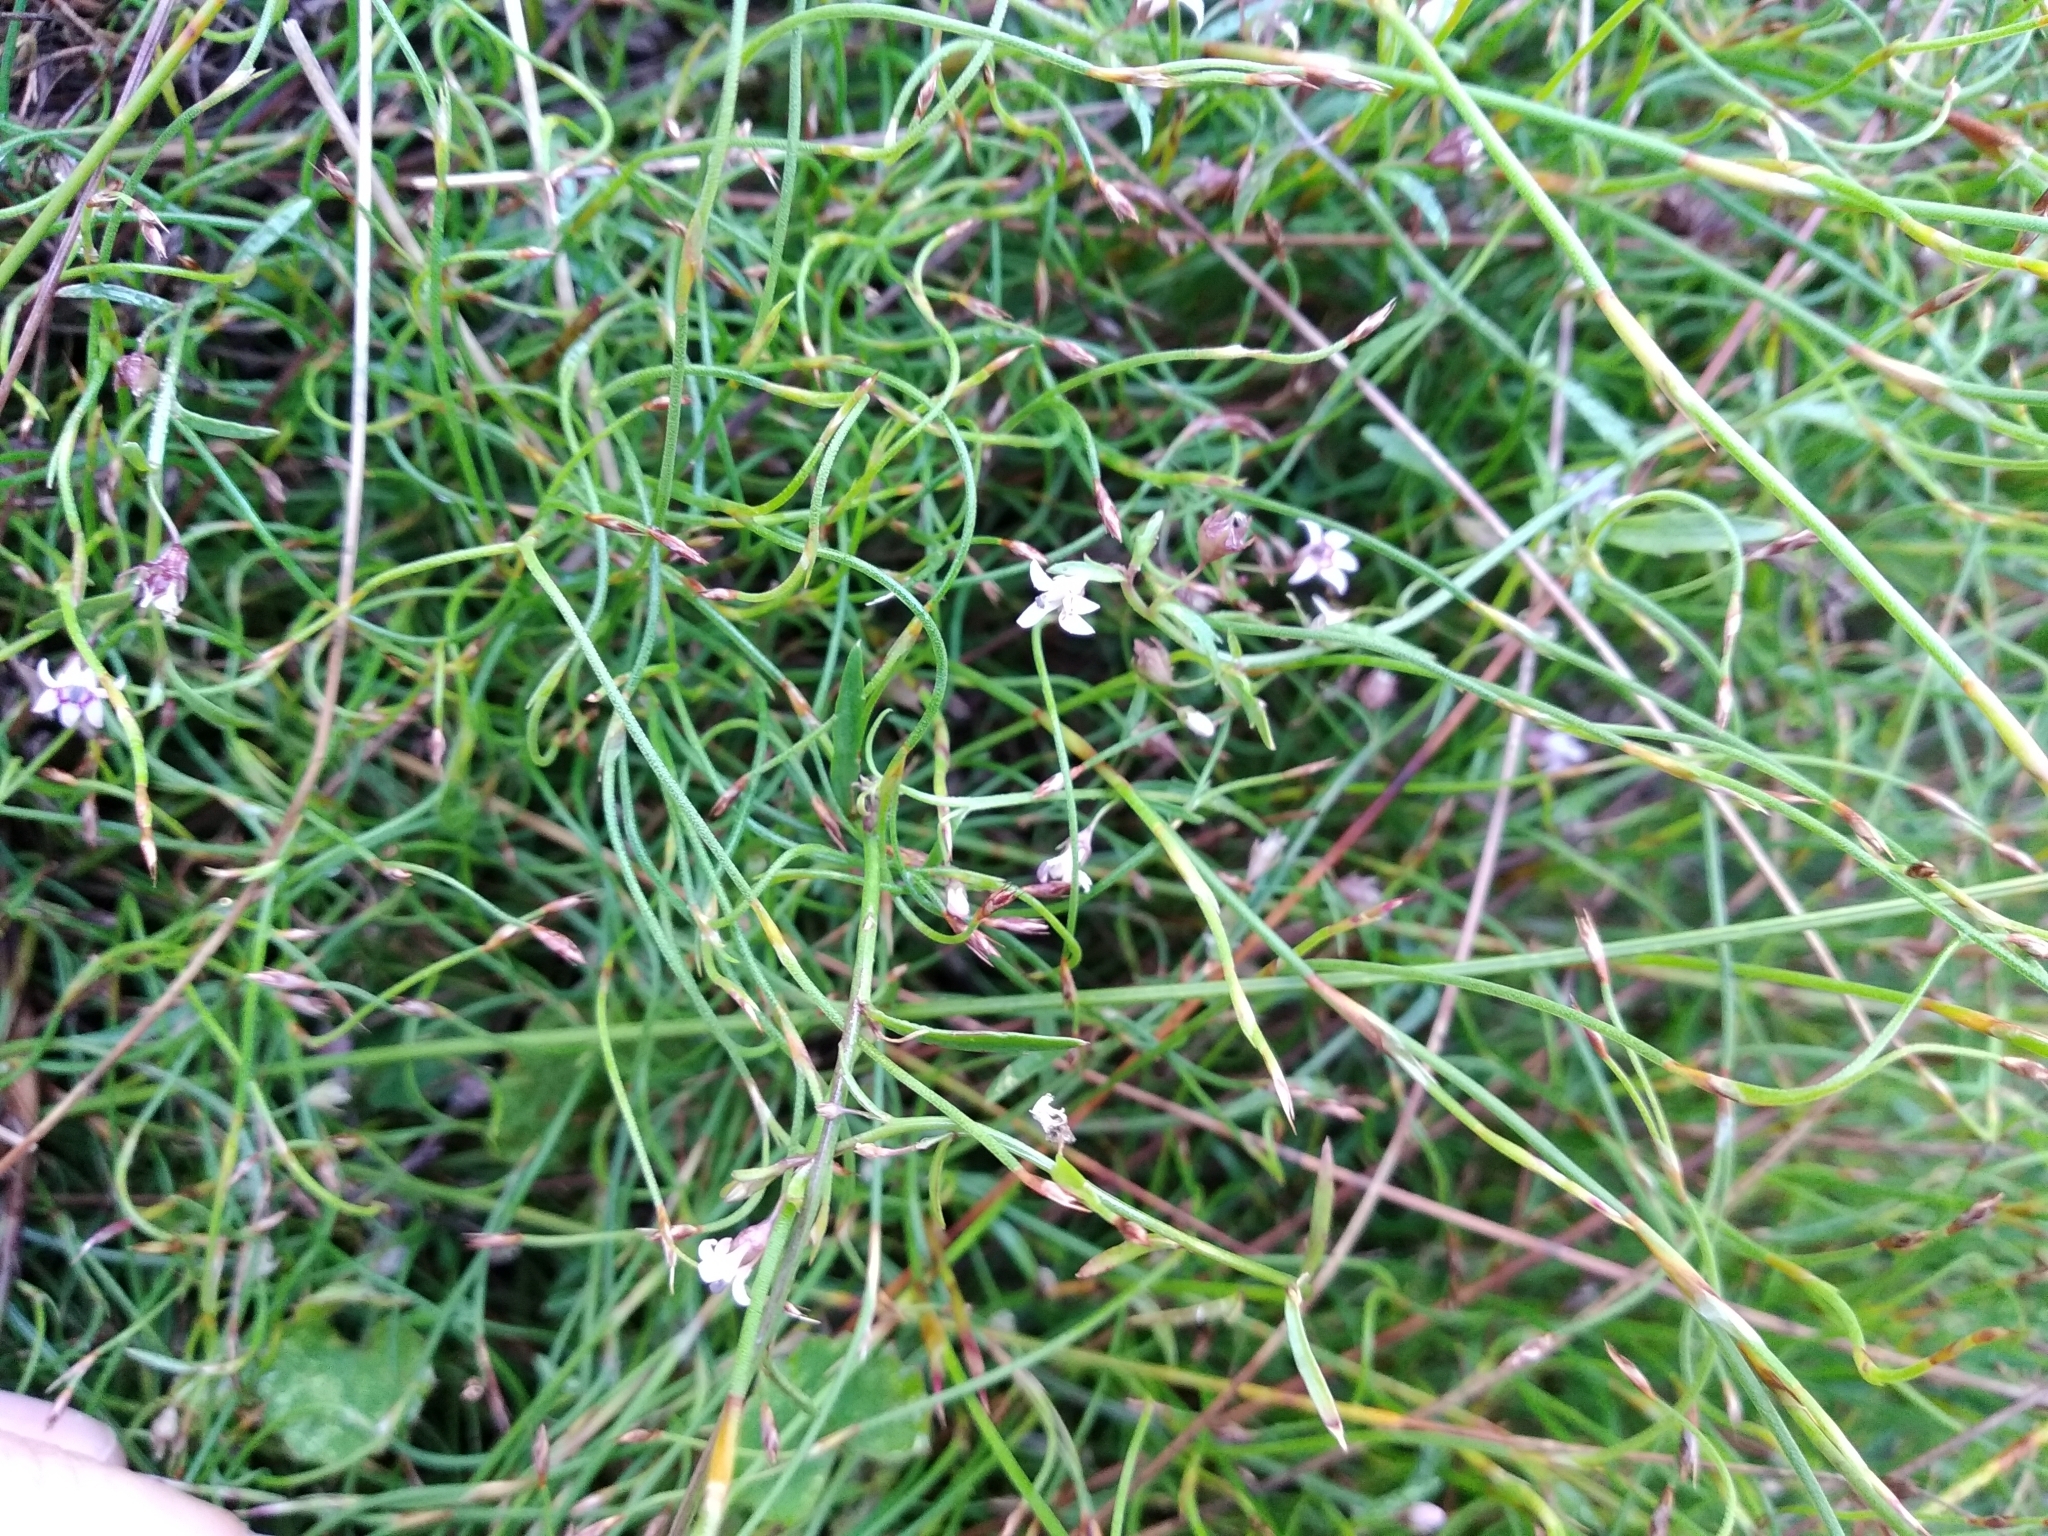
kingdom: Plantae
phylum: Tracheophyta
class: Magnoliopsida
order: Asterales
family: Campanulaceae
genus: Lobelia
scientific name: Lobelia eckloniana
